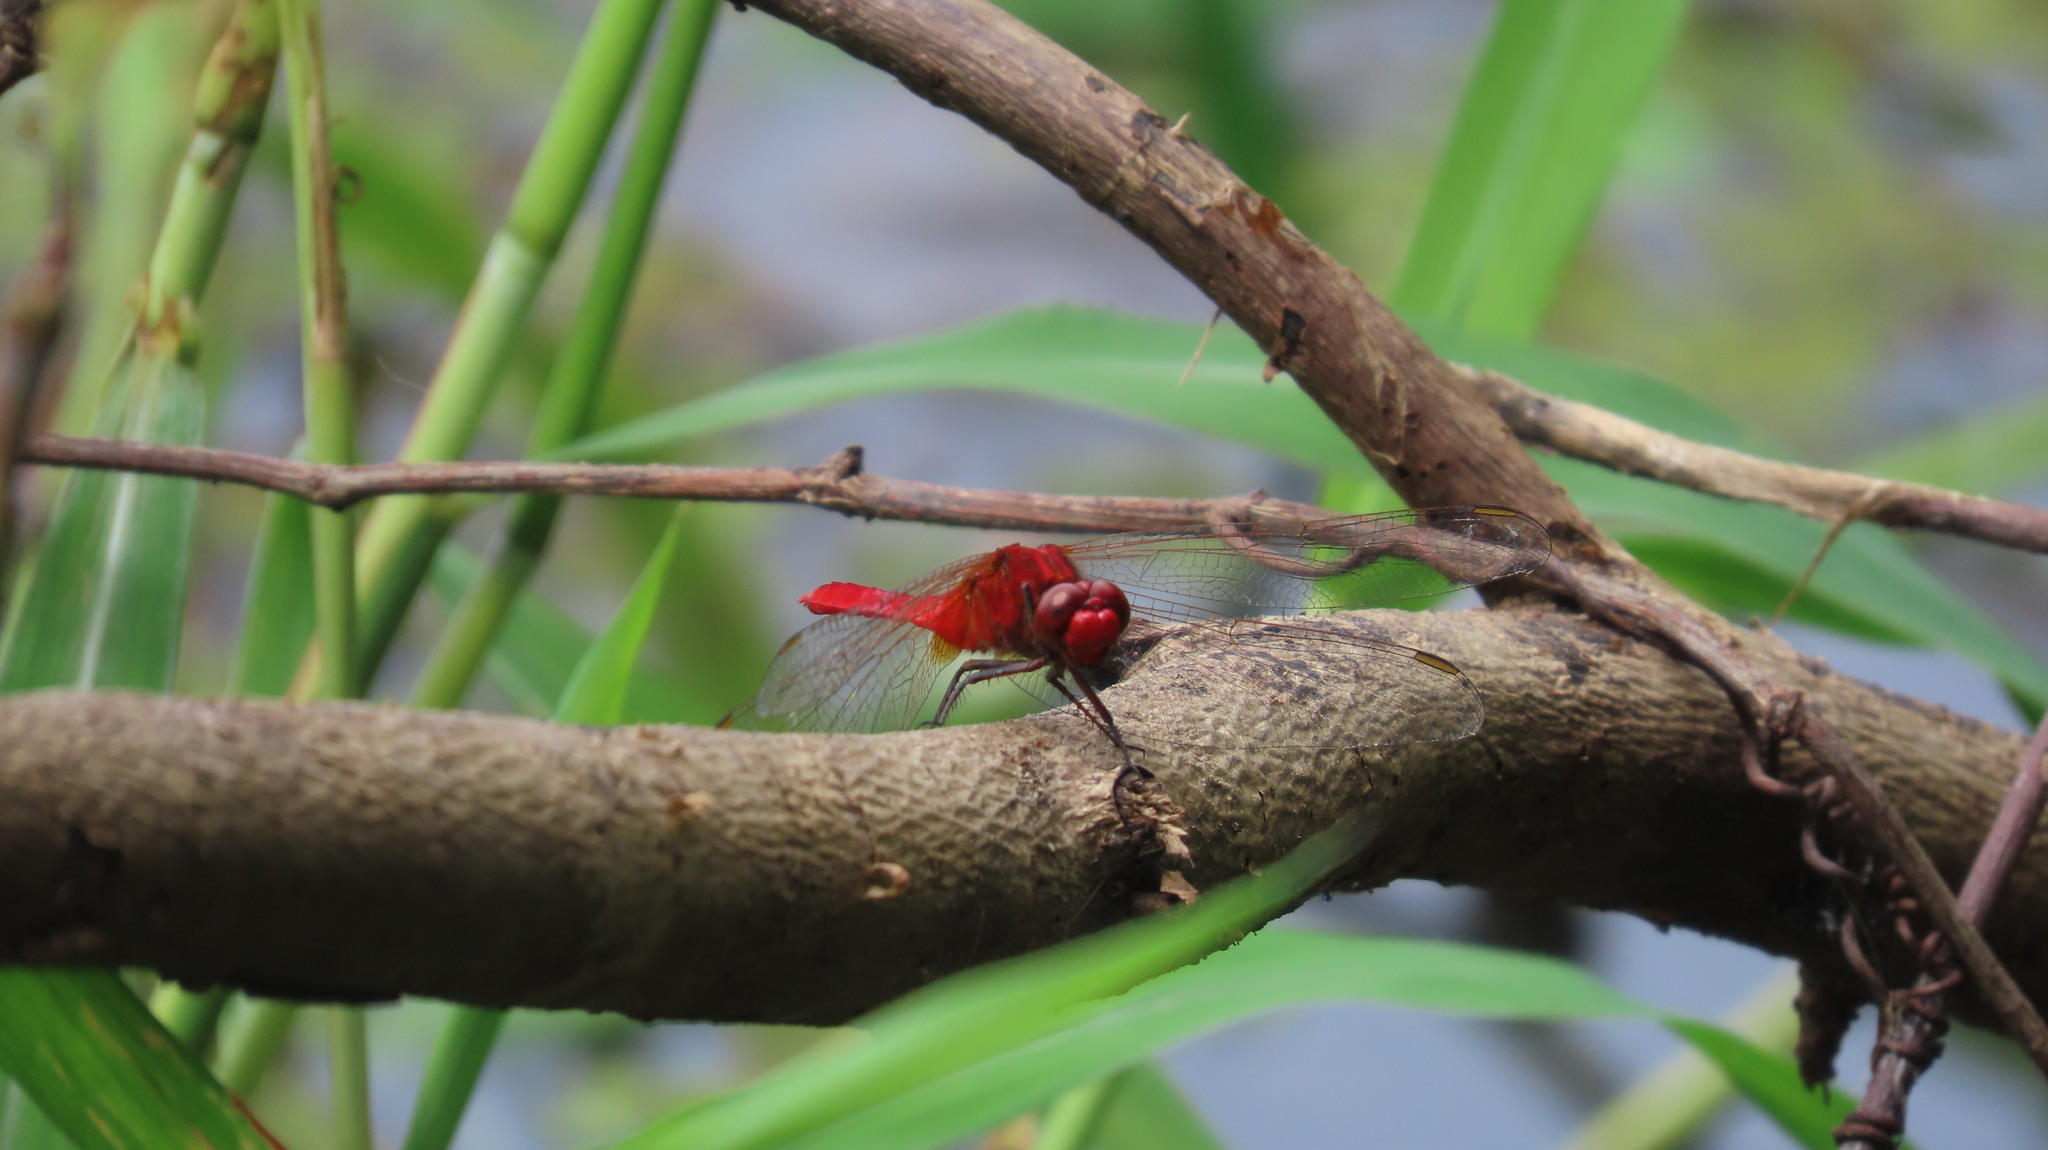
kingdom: Animalia
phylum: Arthropoda
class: Insecta
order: Odonata
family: Libellulidae
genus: Rhodothemis
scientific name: Rhodothemis rufa
